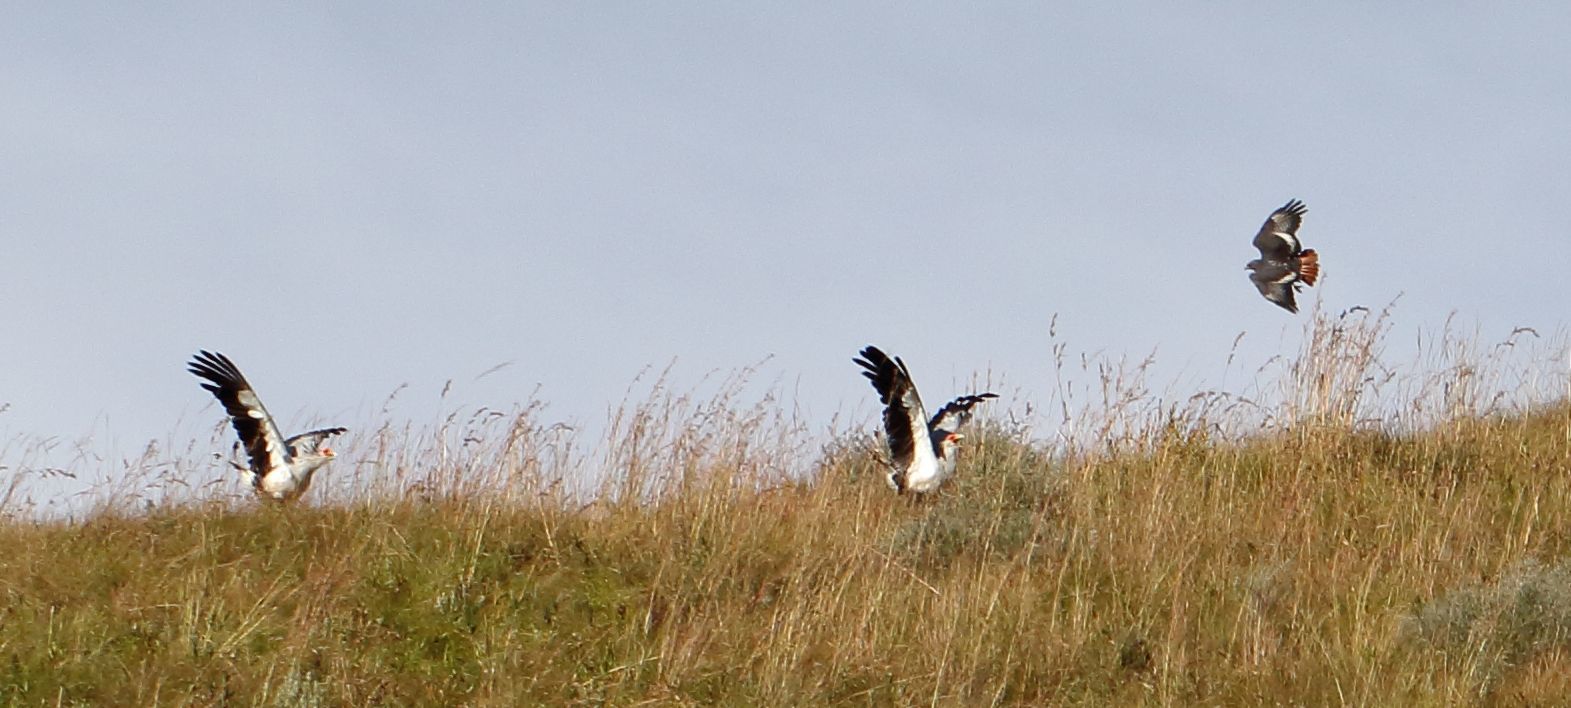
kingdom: Animalia
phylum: Chordata
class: Aves
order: Accipitriformes
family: Accipitridae
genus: Buteo
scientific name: Buteo rufofuscus
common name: Jackal buzzard
